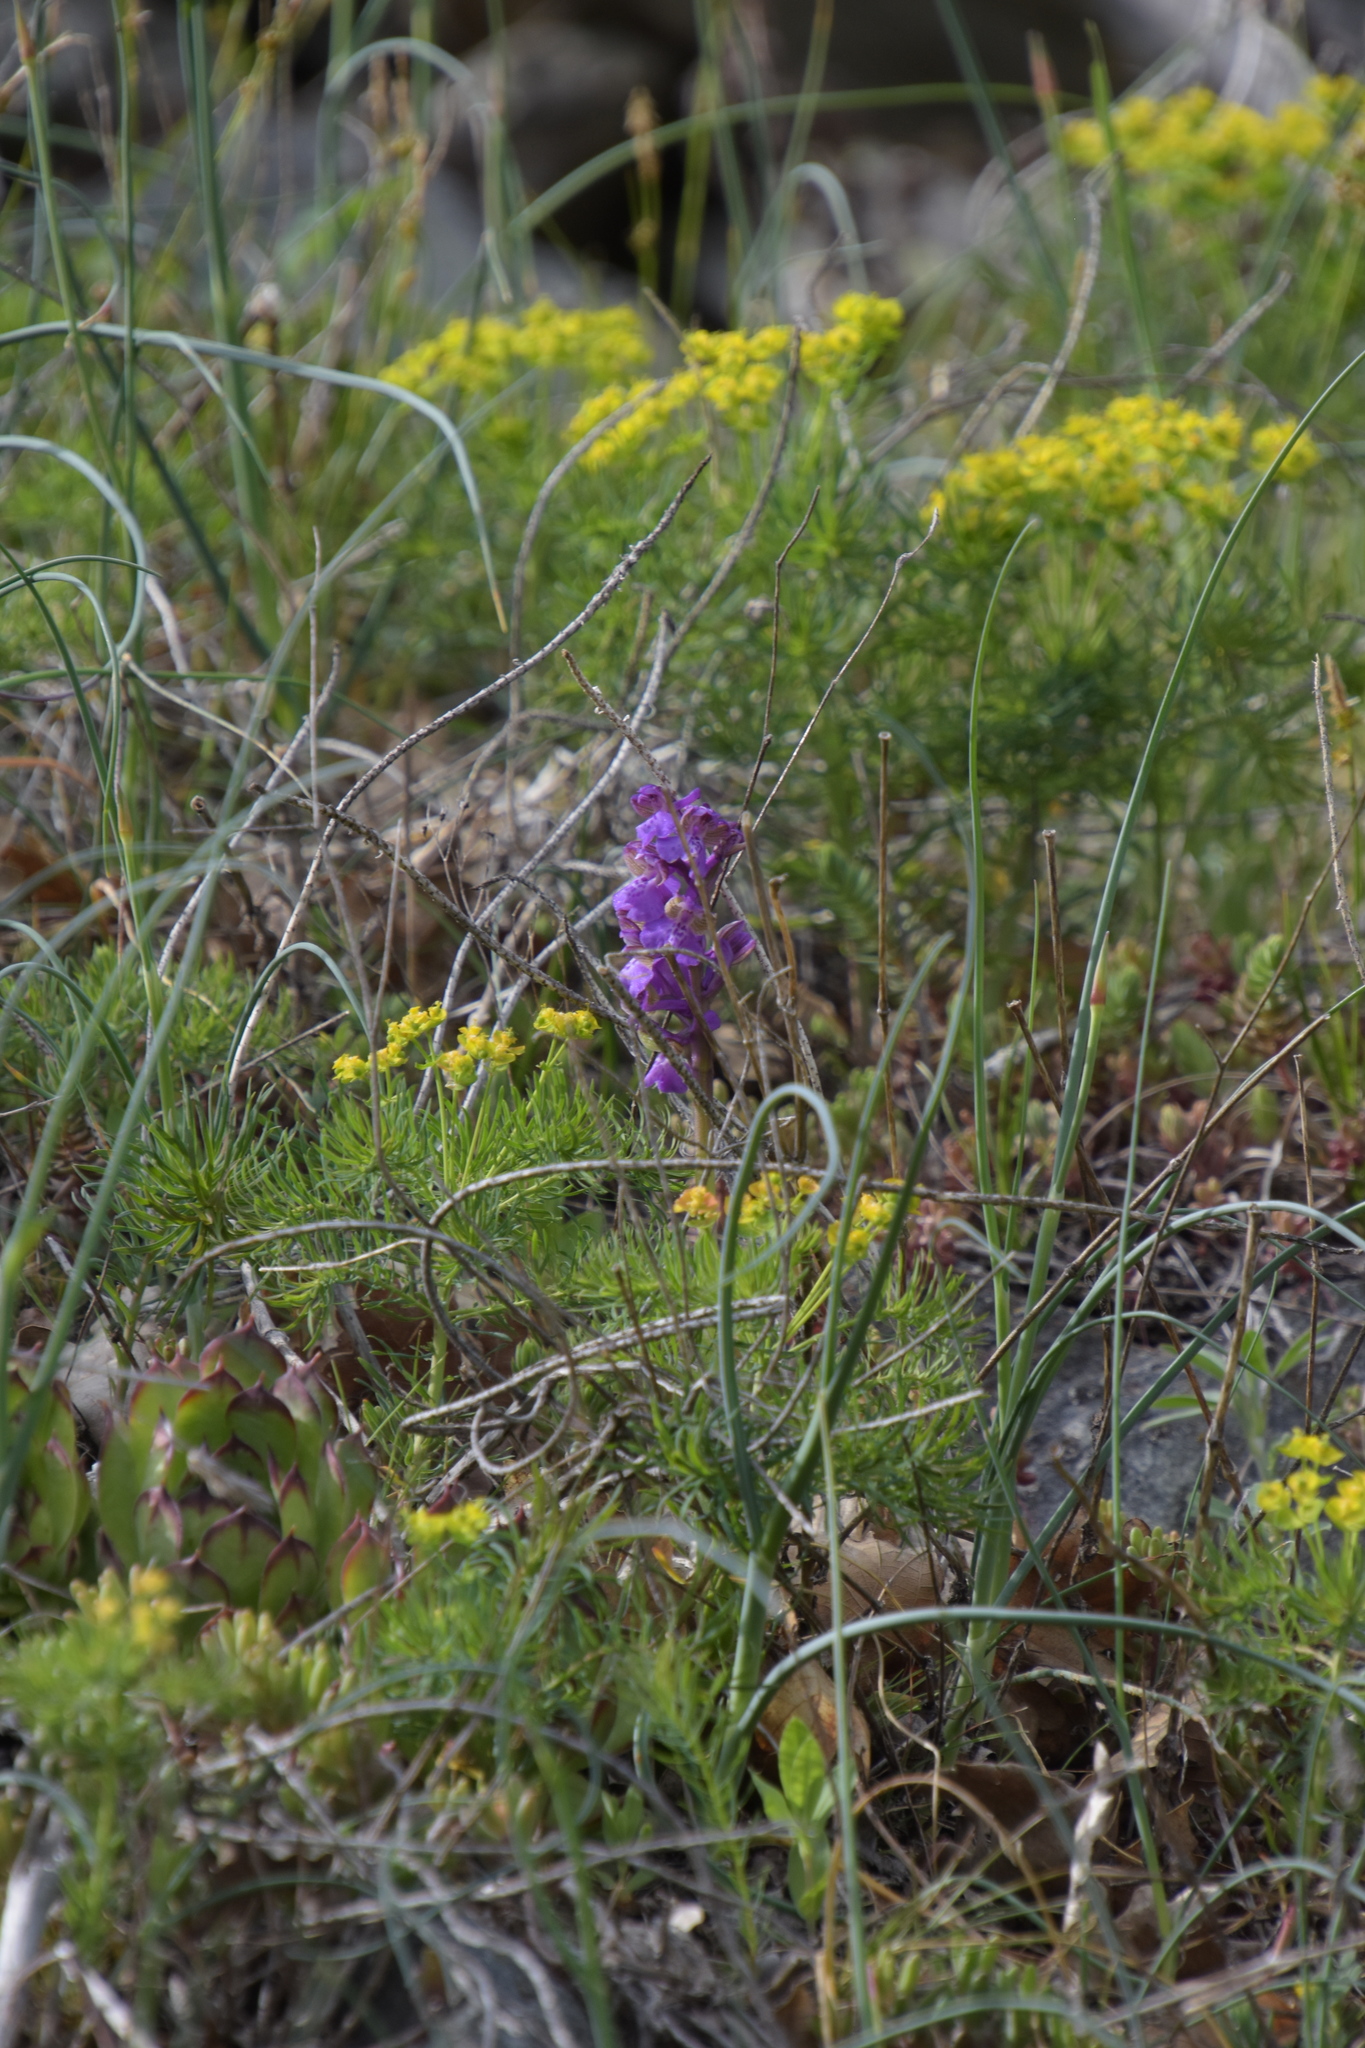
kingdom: Plantae
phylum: Tracheophyta
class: Liliopsida
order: Asparagales
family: Orchidaceae
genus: Anacamptis
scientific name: Anacamptis morio
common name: Green-winged orchid
